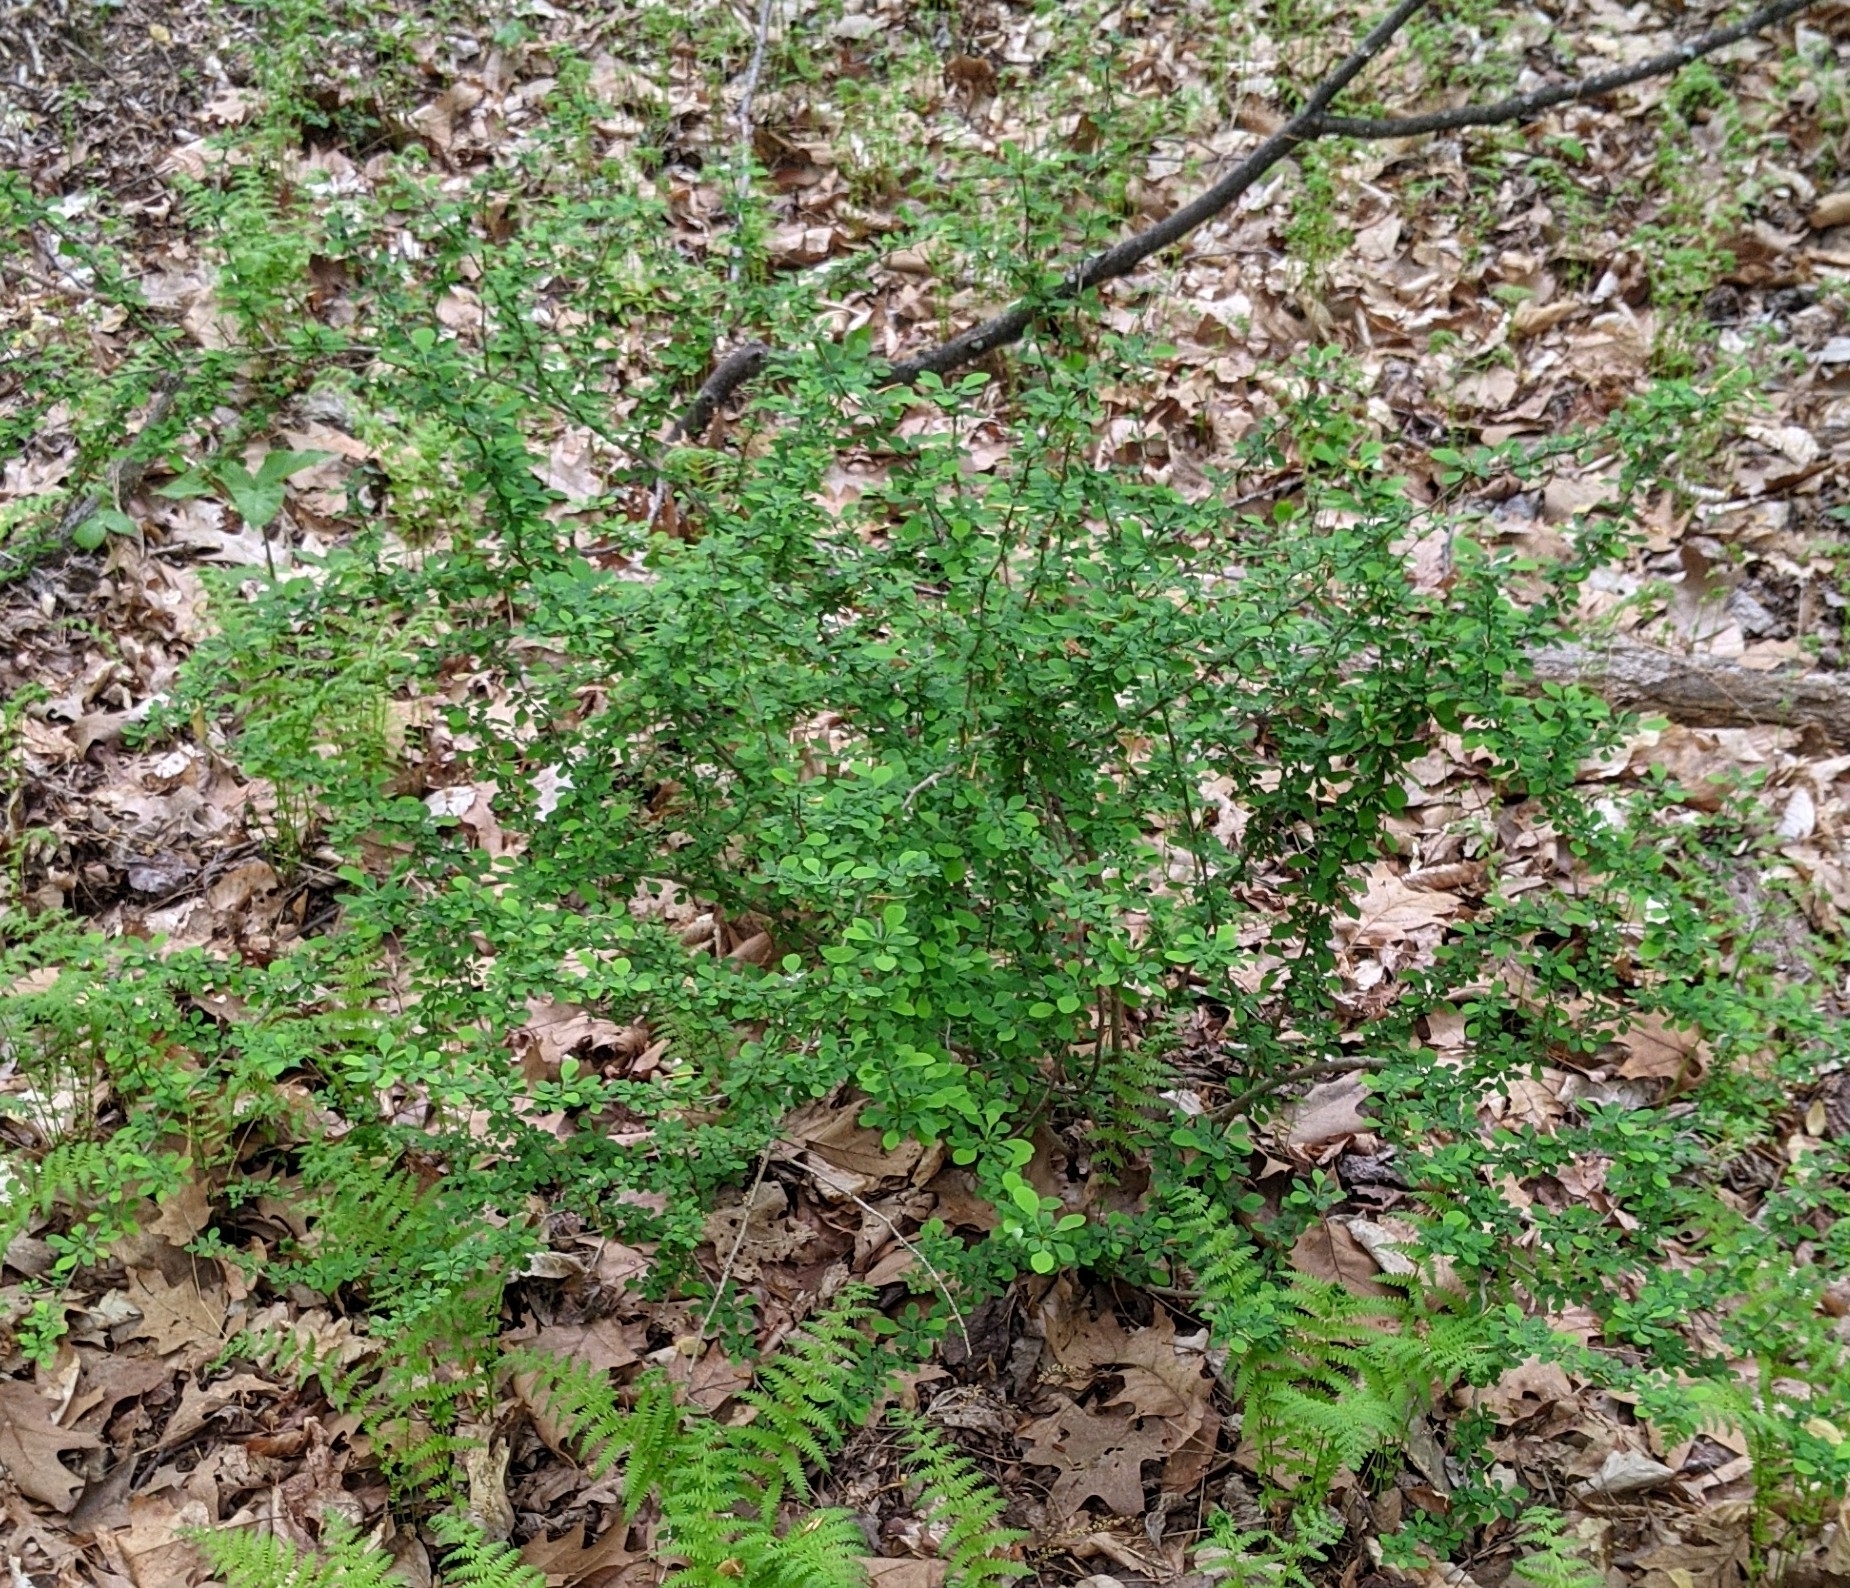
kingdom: Plantae
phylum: Tracheophyta
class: Magnoliopsida
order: Ranunculales
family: Berberidaceae
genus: Berberis
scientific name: Berberis thunbergii
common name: Japanese barberry
